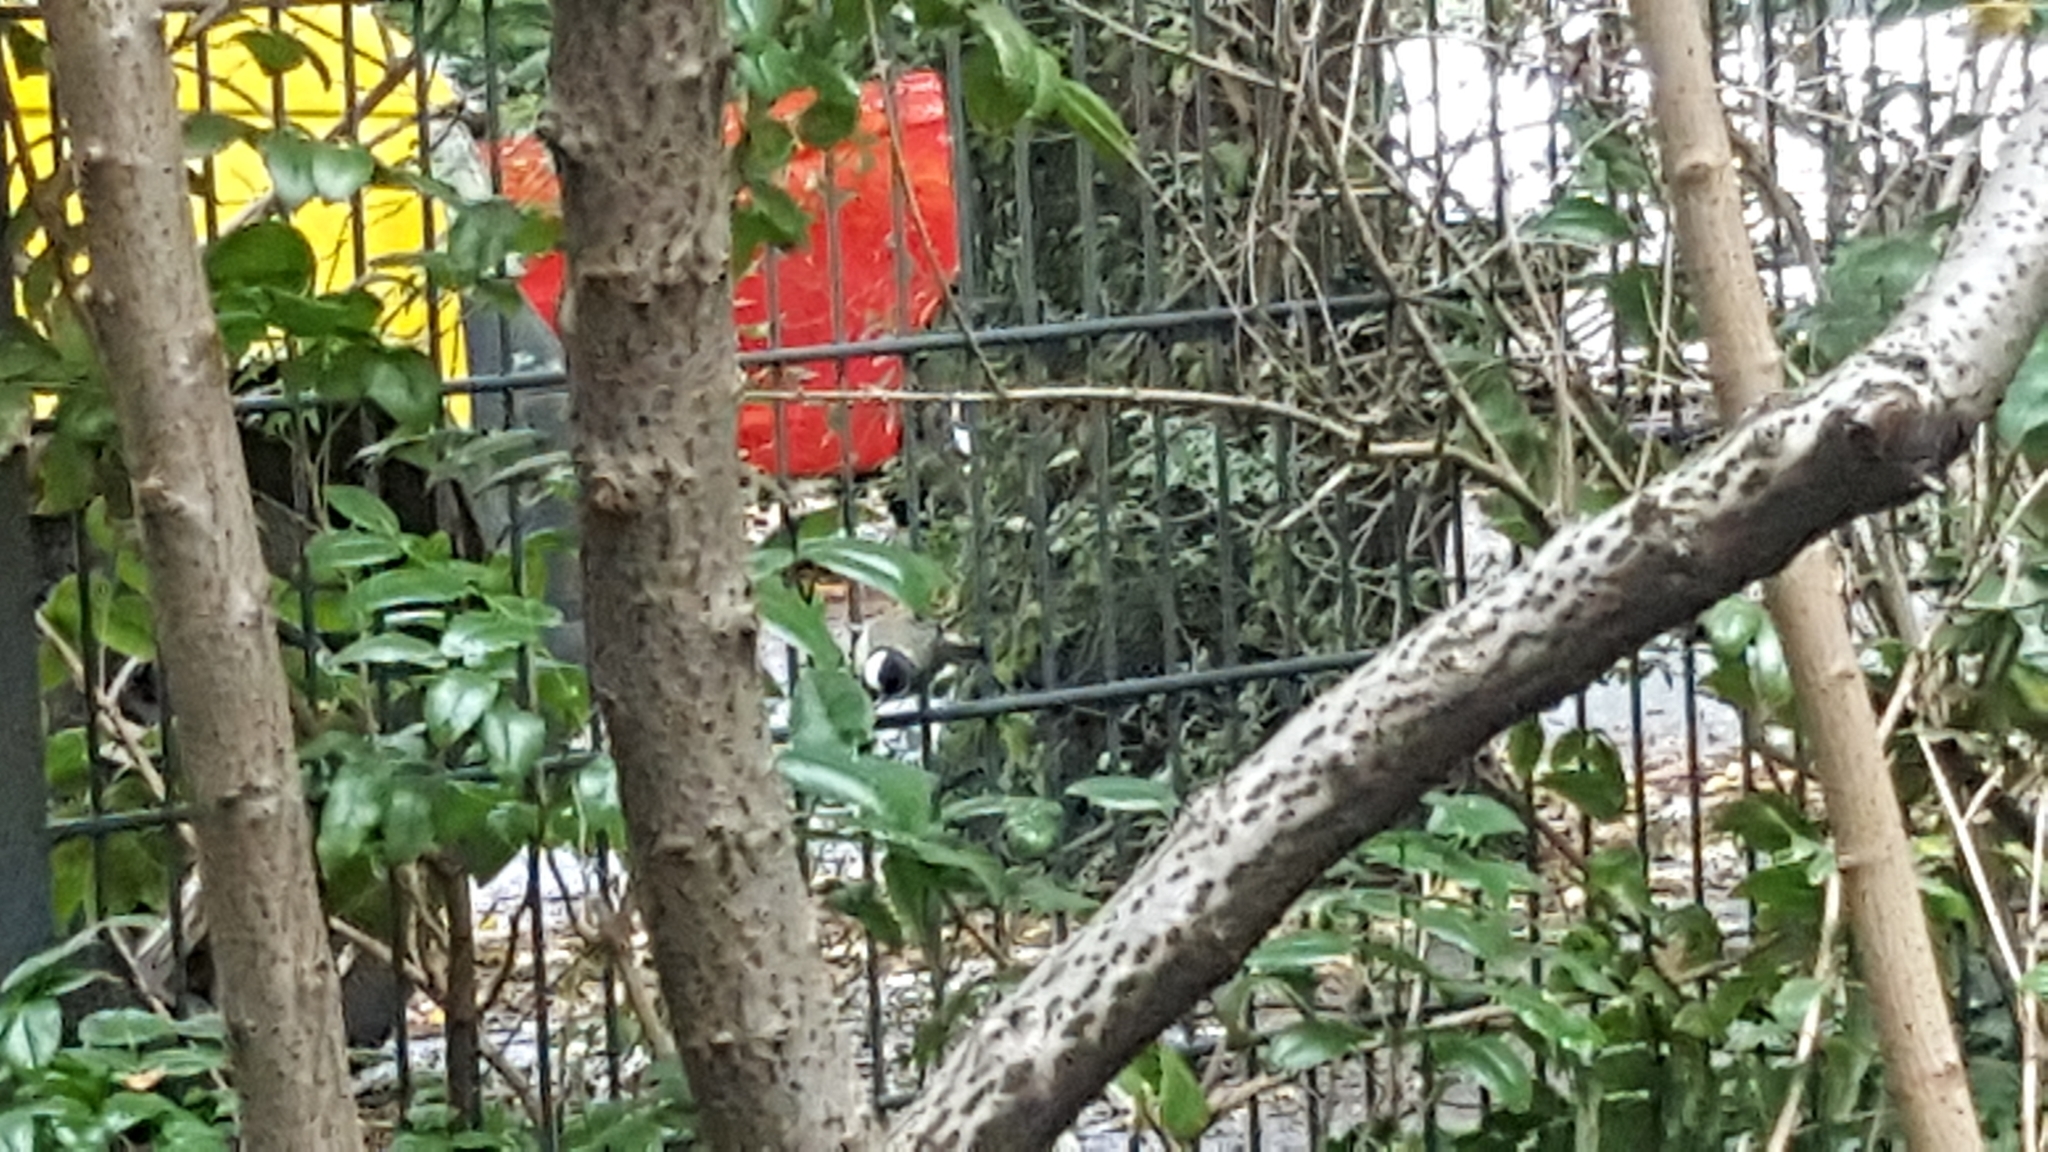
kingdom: Animalia
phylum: Chordata
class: Aves
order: Passeriformes
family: Paridae
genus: Parus
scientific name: Parus major
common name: Great tit
